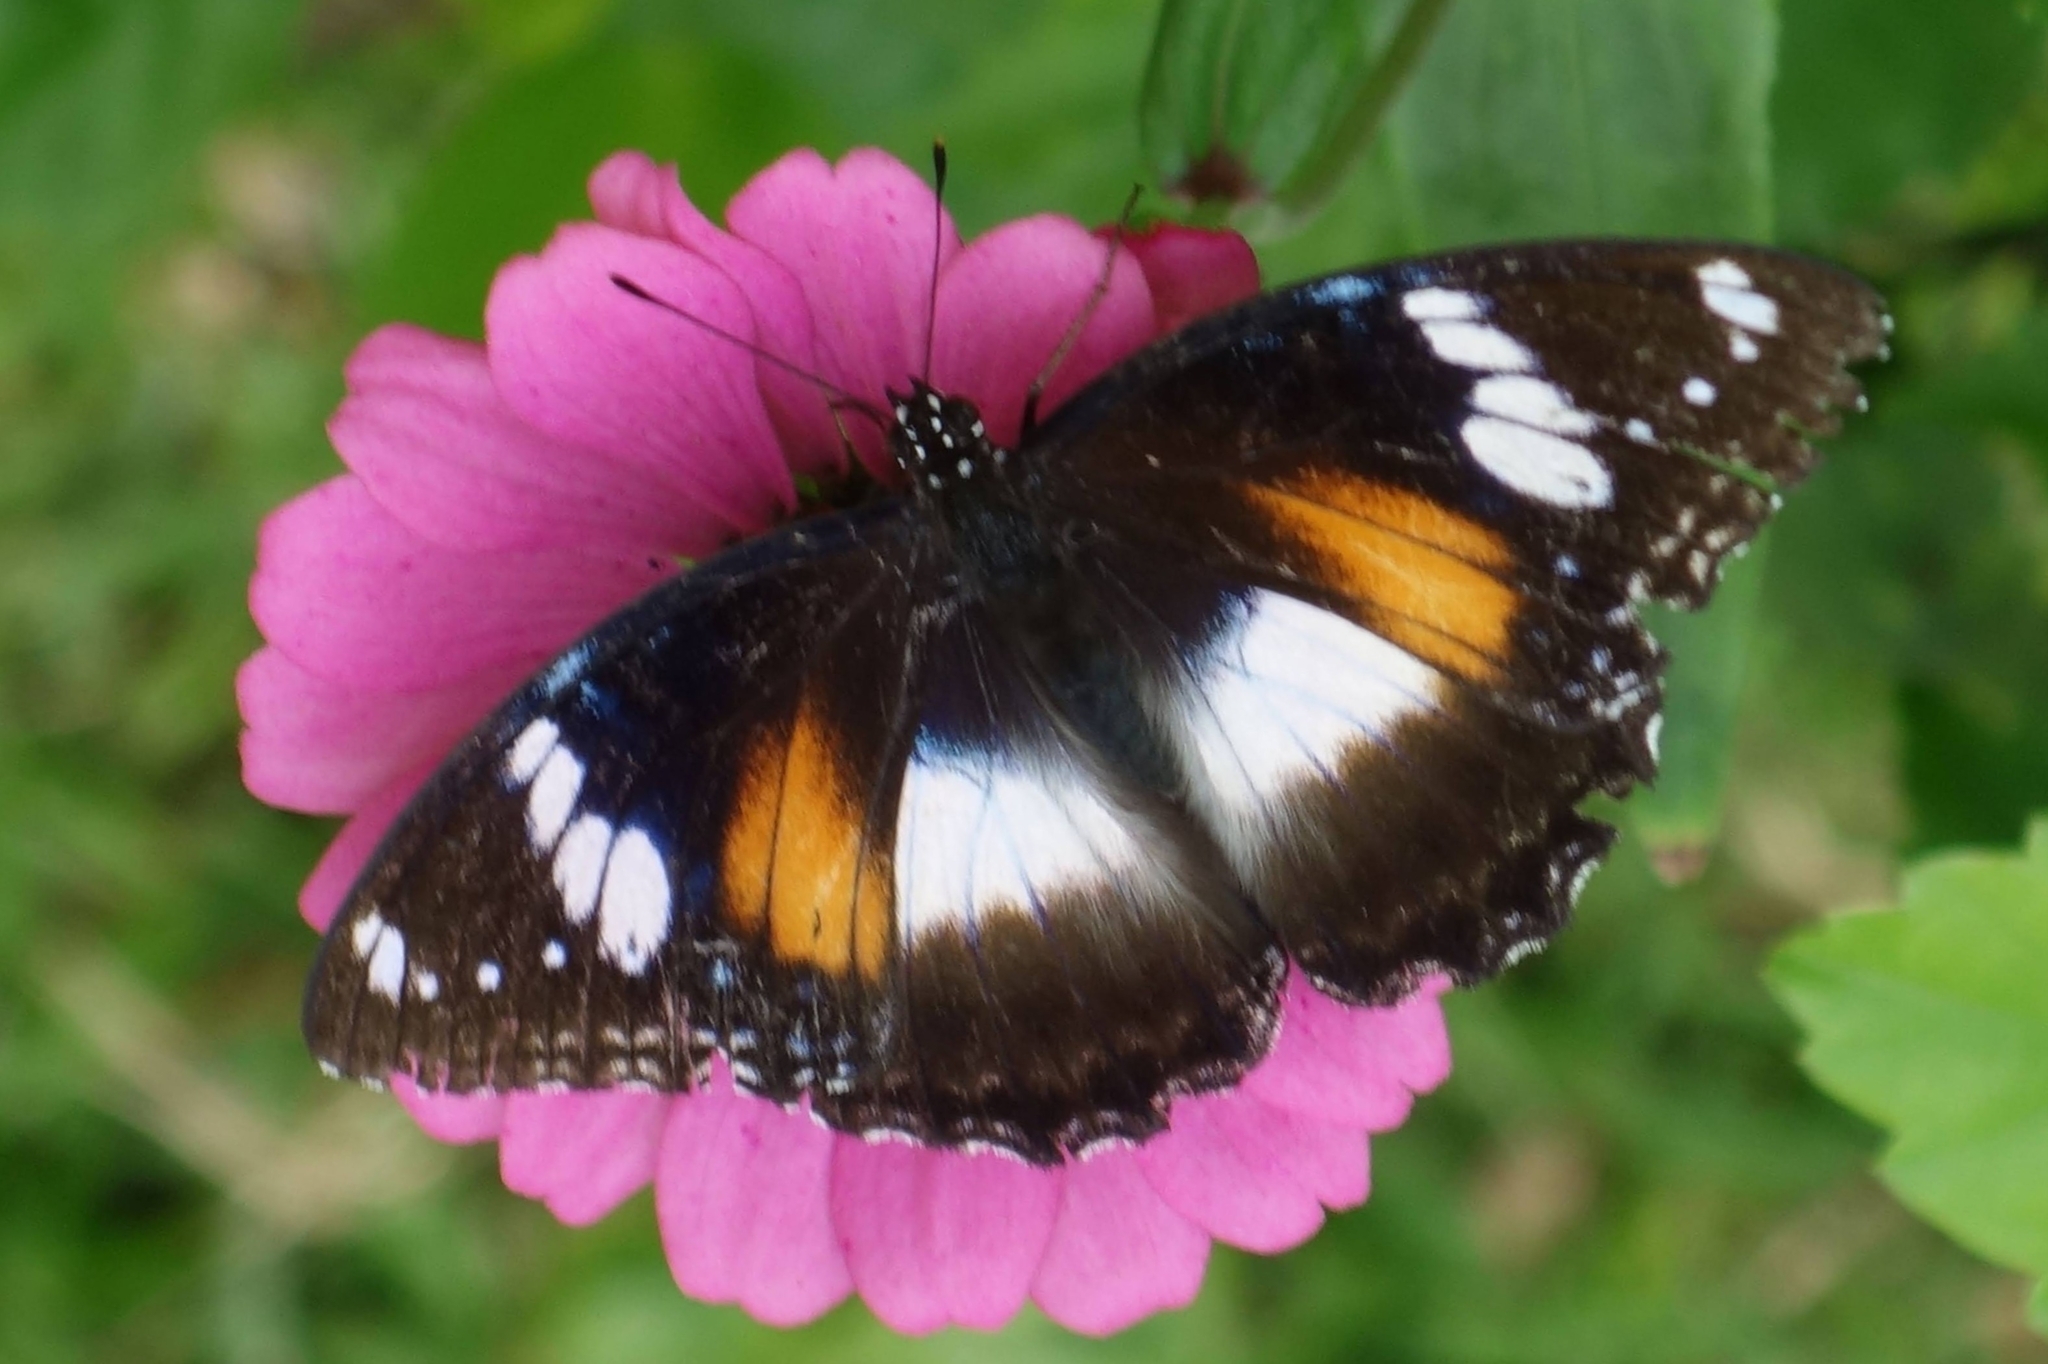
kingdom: Animalia
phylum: Arthropoda
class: Insecta
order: Lepidoptera
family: Nymphalidae
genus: Hypolimnas
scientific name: Hypolimnas bolina
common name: Great eggfly
